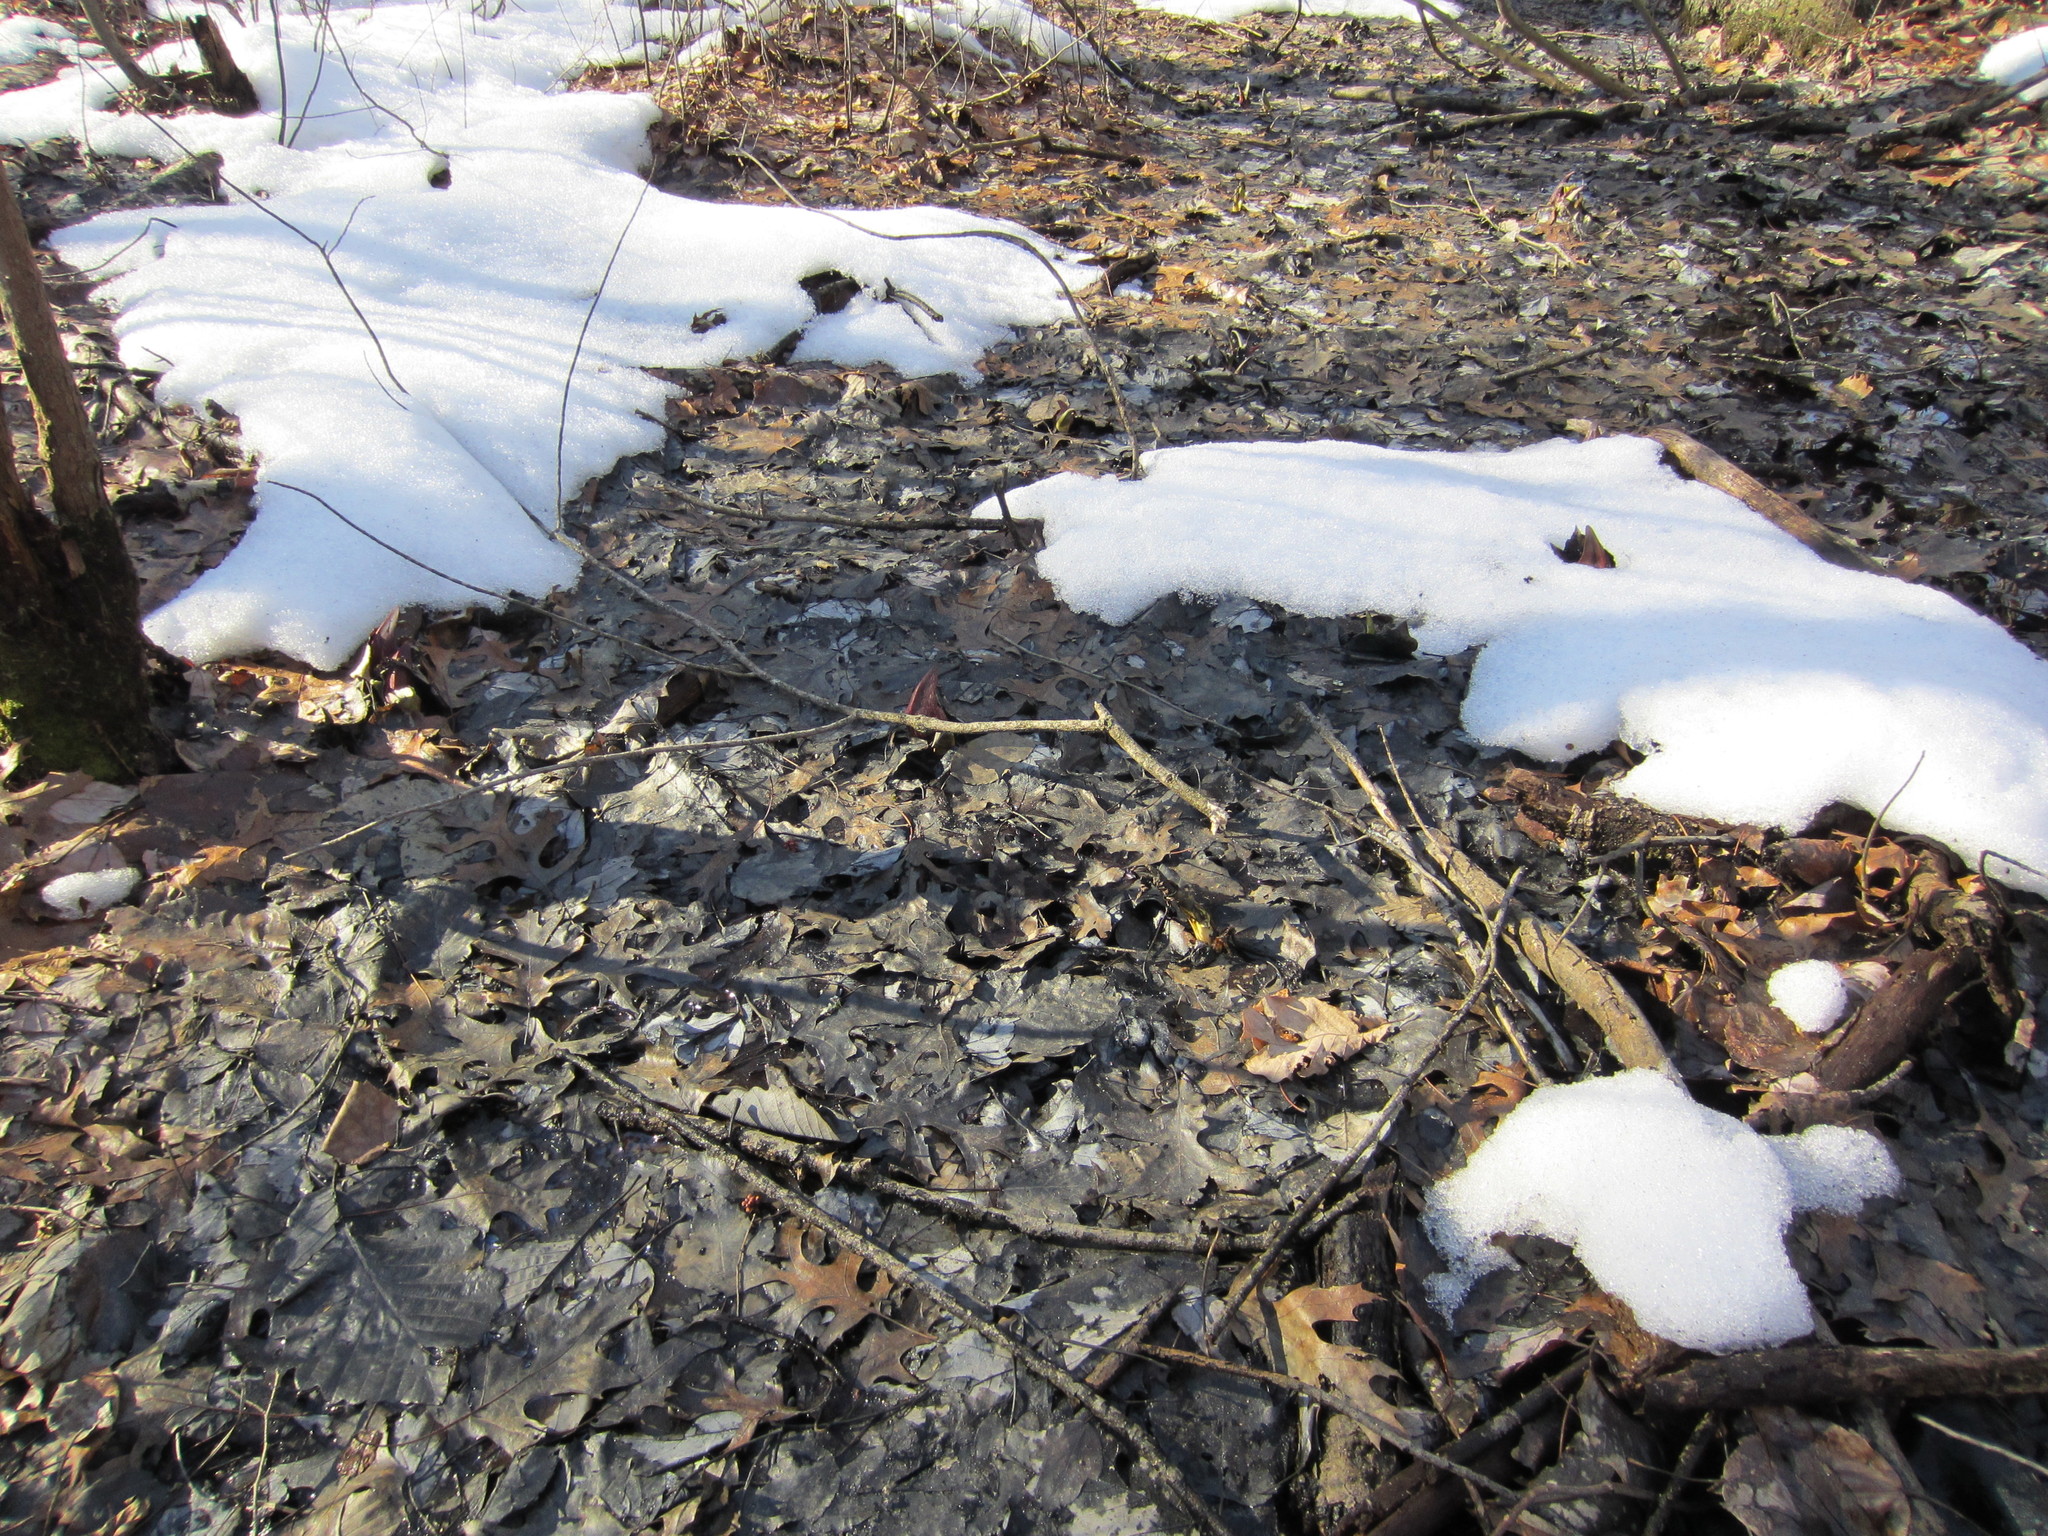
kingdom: Plantae
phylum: Tracheophyta
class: Liliopsida
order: Alismatales
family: Araceae
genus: Symplocarpus
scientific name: Symplocarpus foetidus
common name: Eastern skunk cabbage
